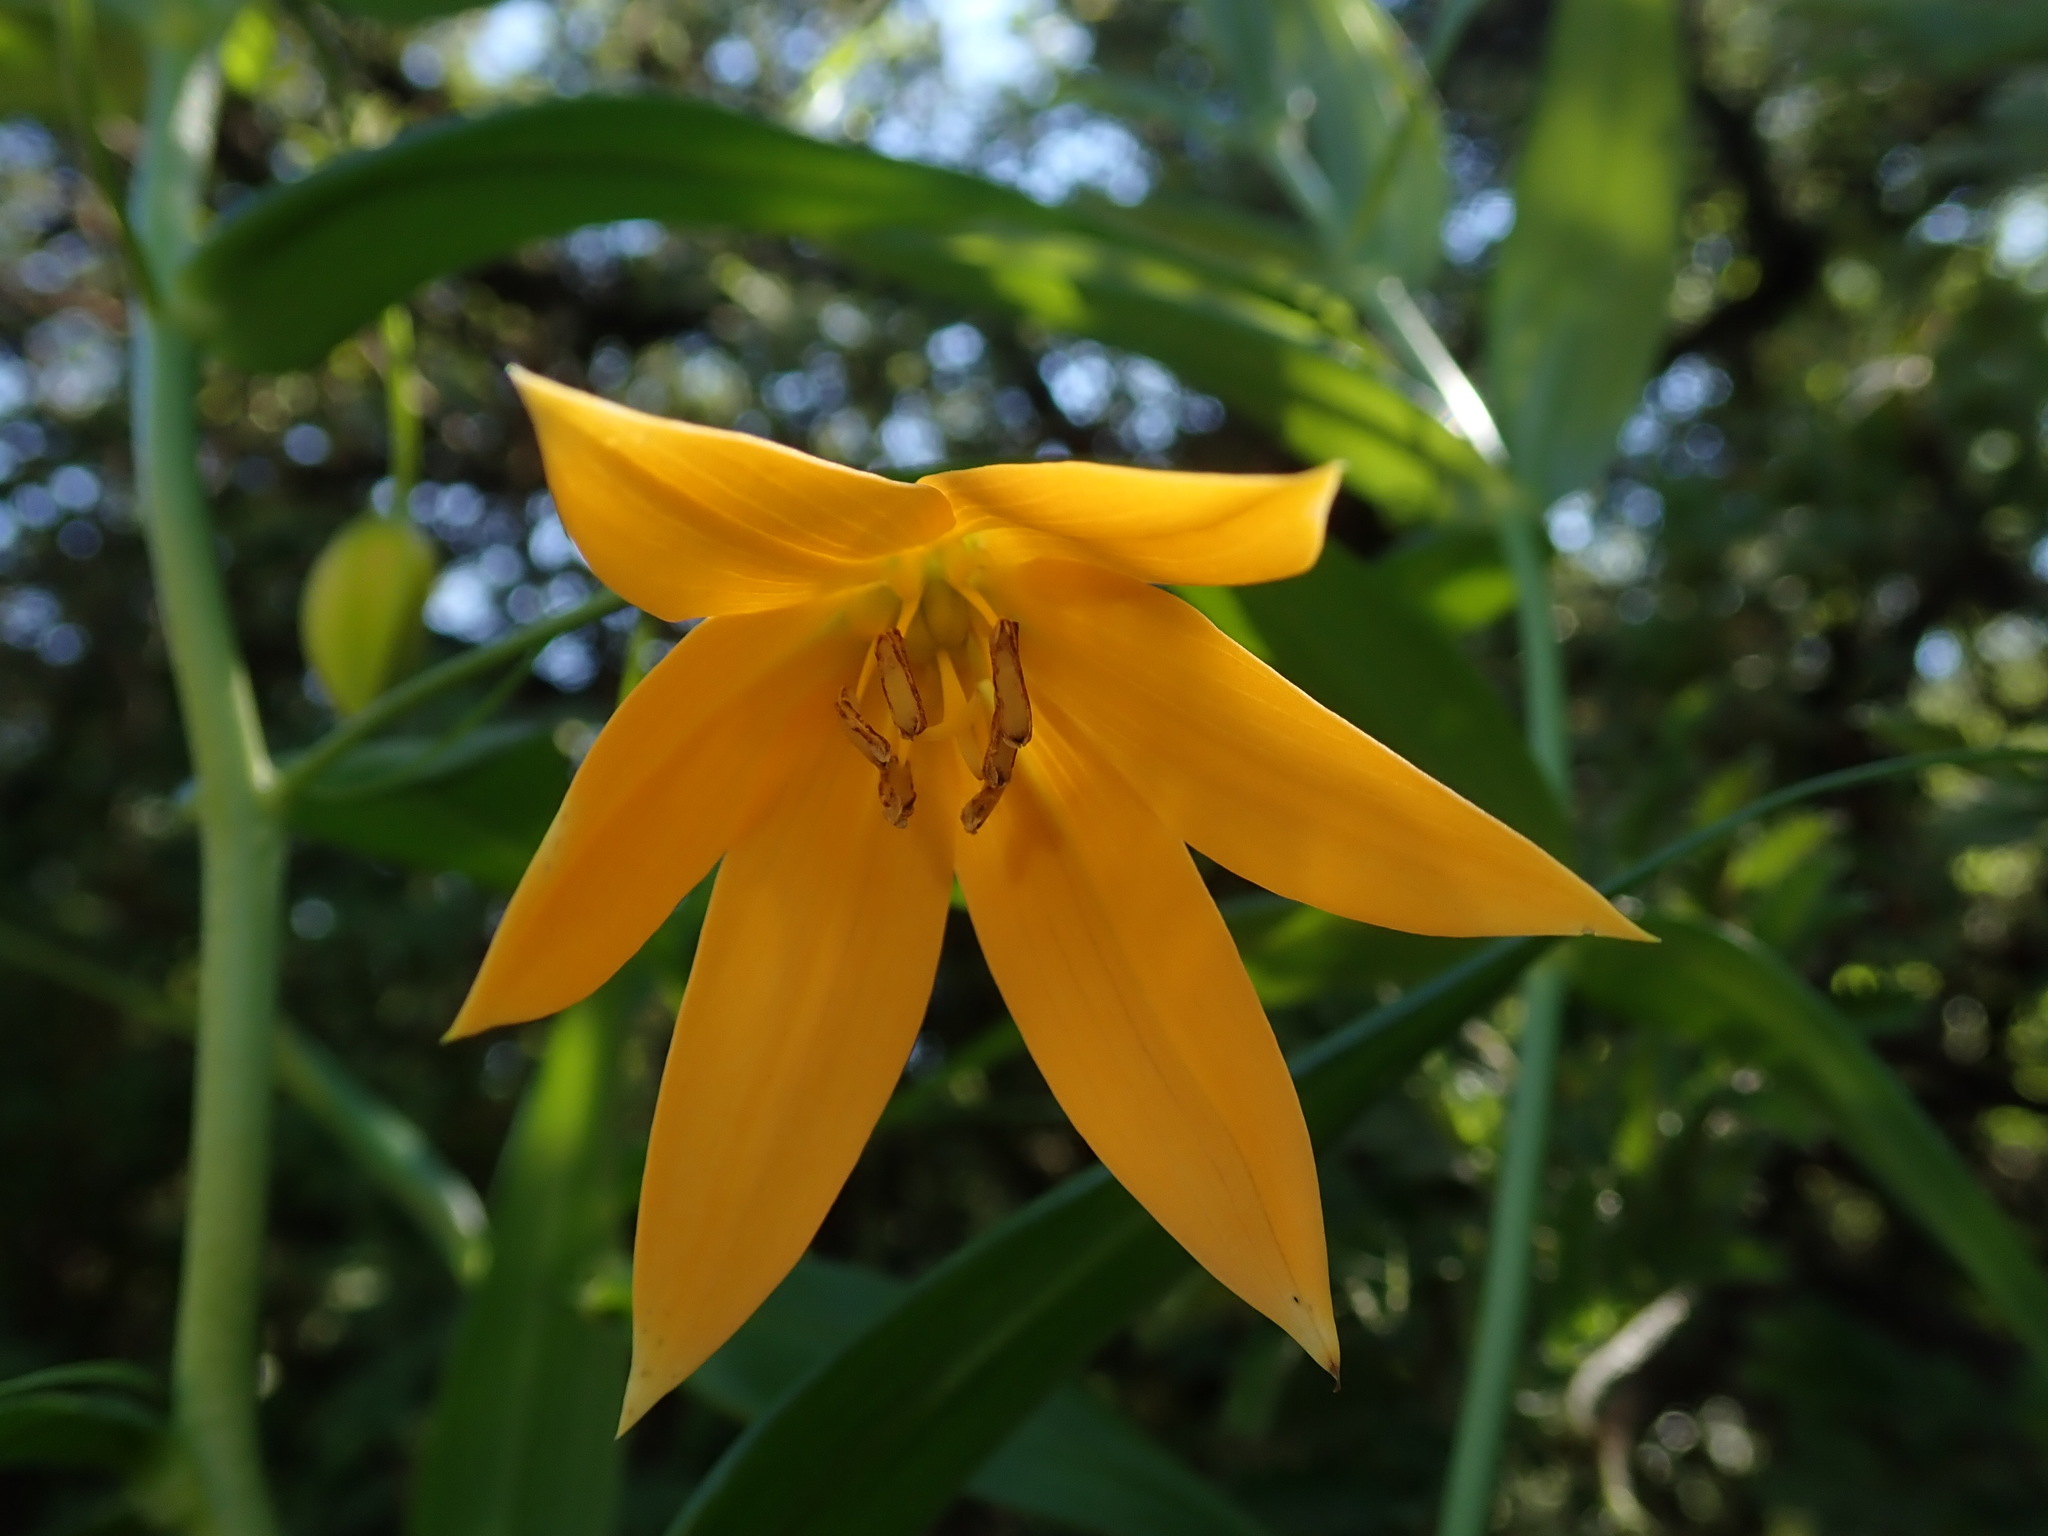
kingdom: Plantae
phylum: Tracheophyta
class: Liliopsida
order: Liliales
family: Colchicaceae
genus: Gloriosa
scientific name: Gloriosa modesta
